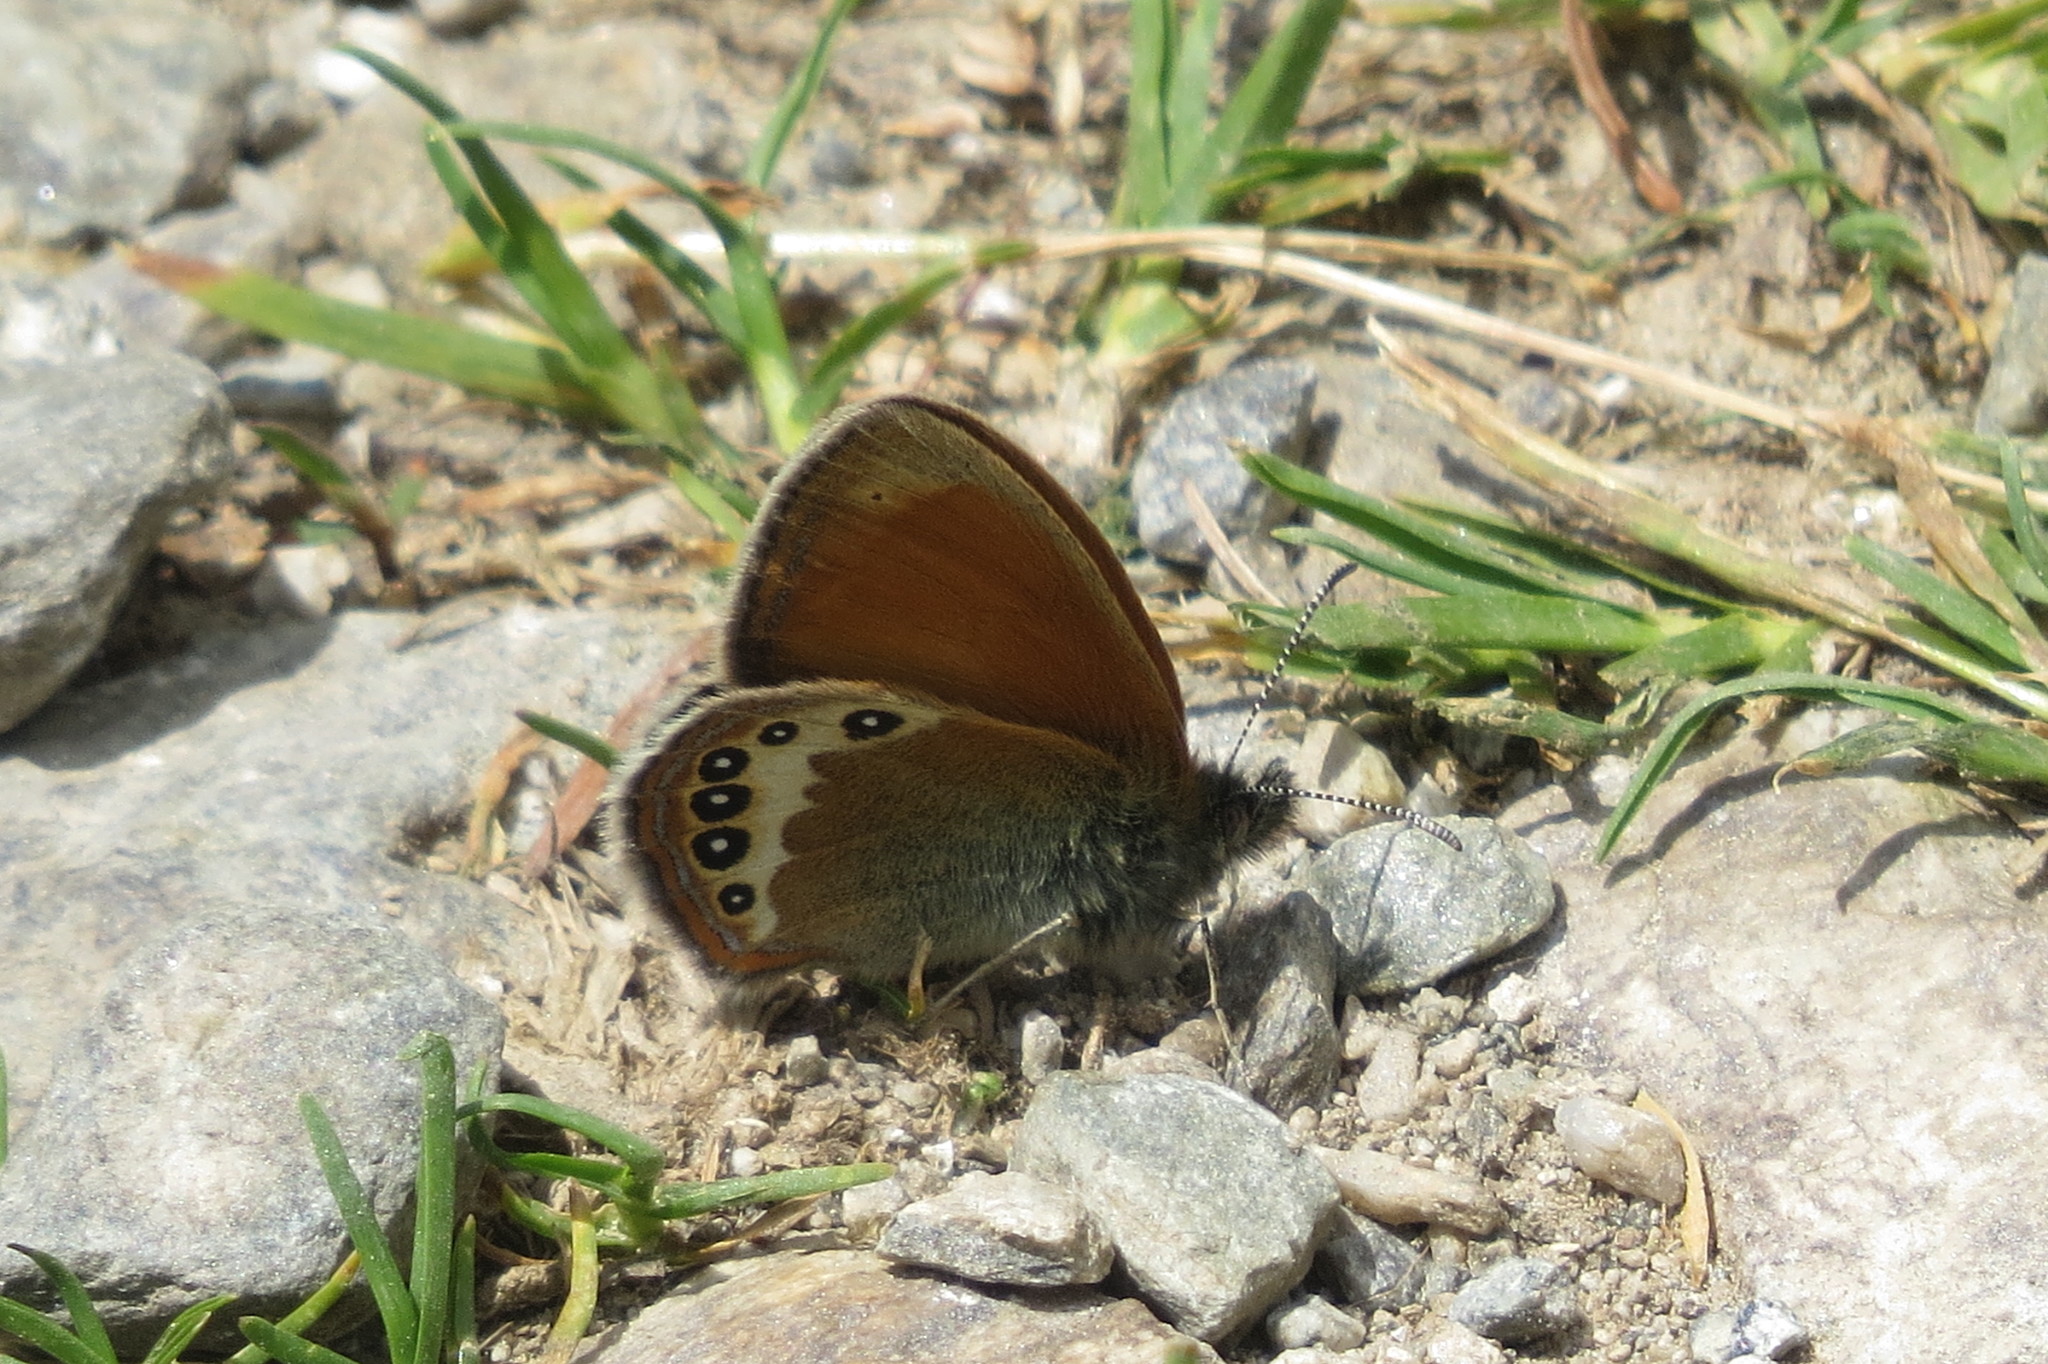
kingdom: Animalia
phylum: Arthropoda
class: Insecta
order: Lepidoptera
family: Nymphalidae
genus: Coenonympha
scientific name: Coenonympha
